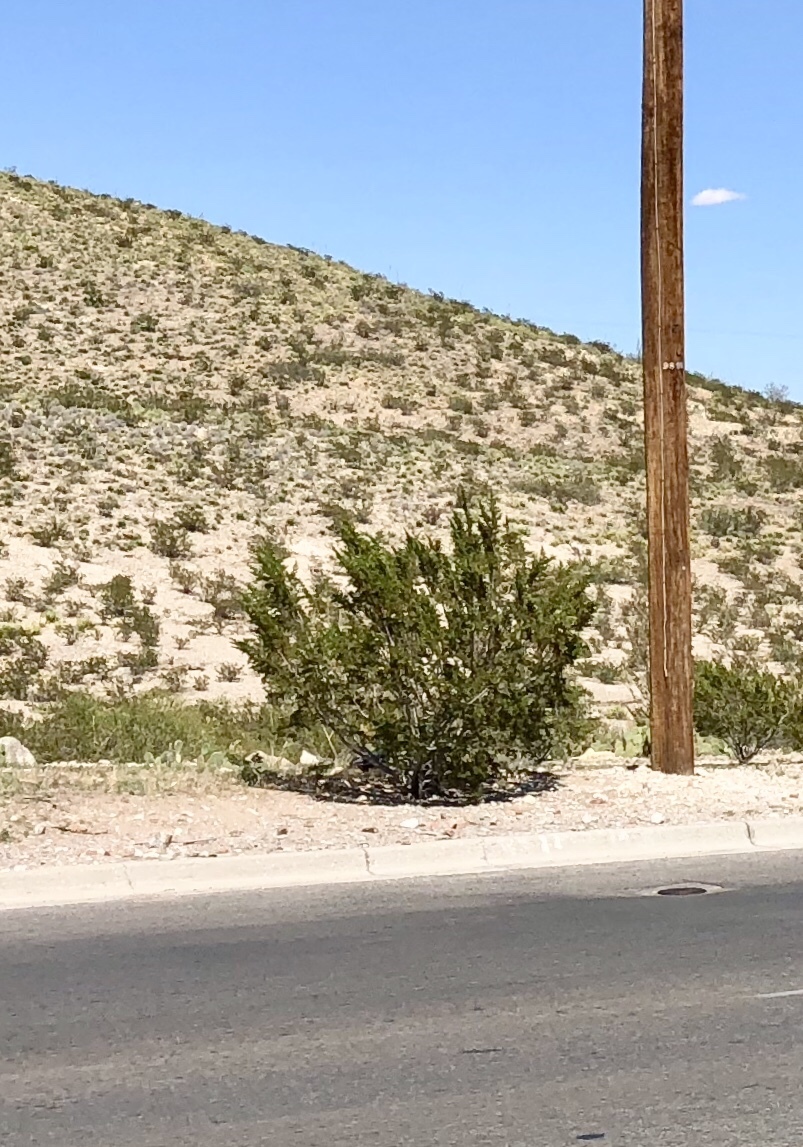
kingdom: Plantae
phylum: Tracheophyta
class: Magnoliopsida
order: Zygophyllales
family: Zygophyllaceae
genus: Larrea
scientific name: Larrea tridentata
